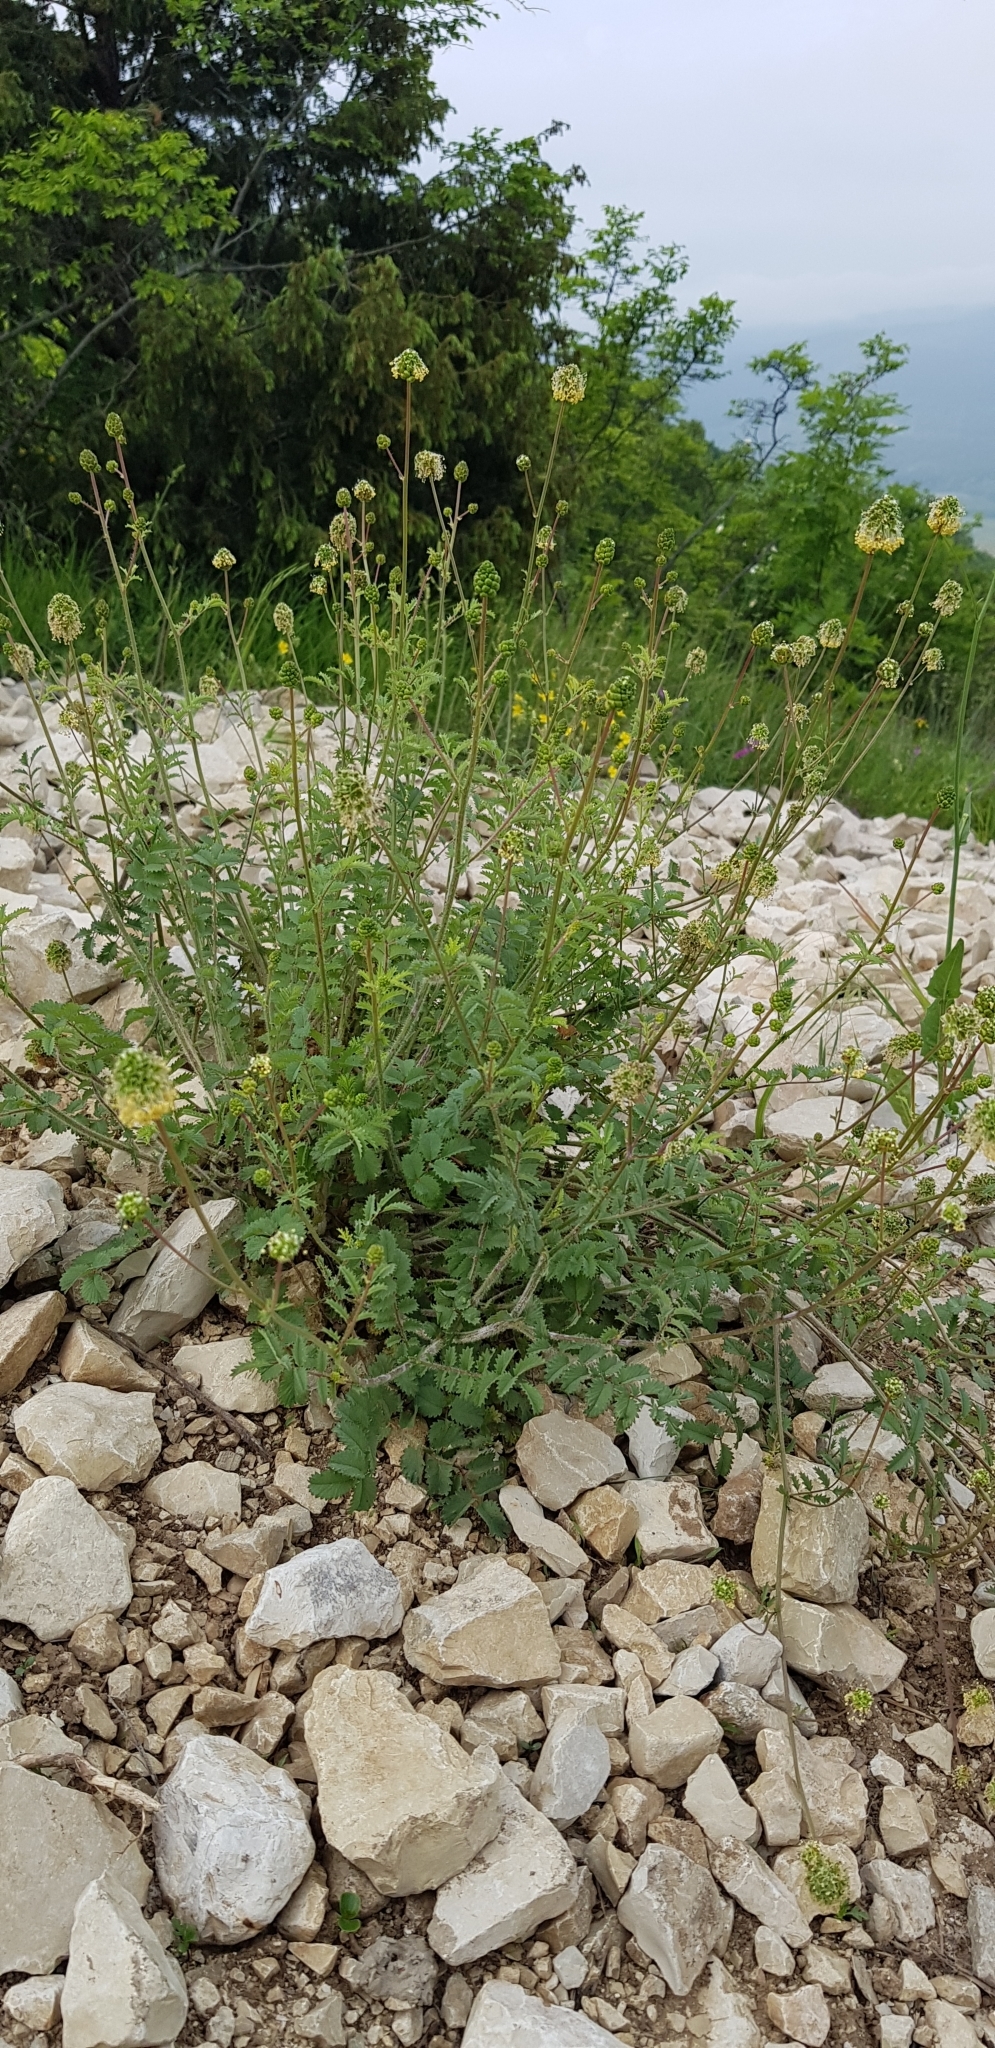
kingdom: Plantae
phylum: Tracheophyta
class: Magnoliopsida
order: Rosales
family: Rosaceae
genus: Poterium
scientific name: Poterium sanguisorba
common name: Salad burnet
